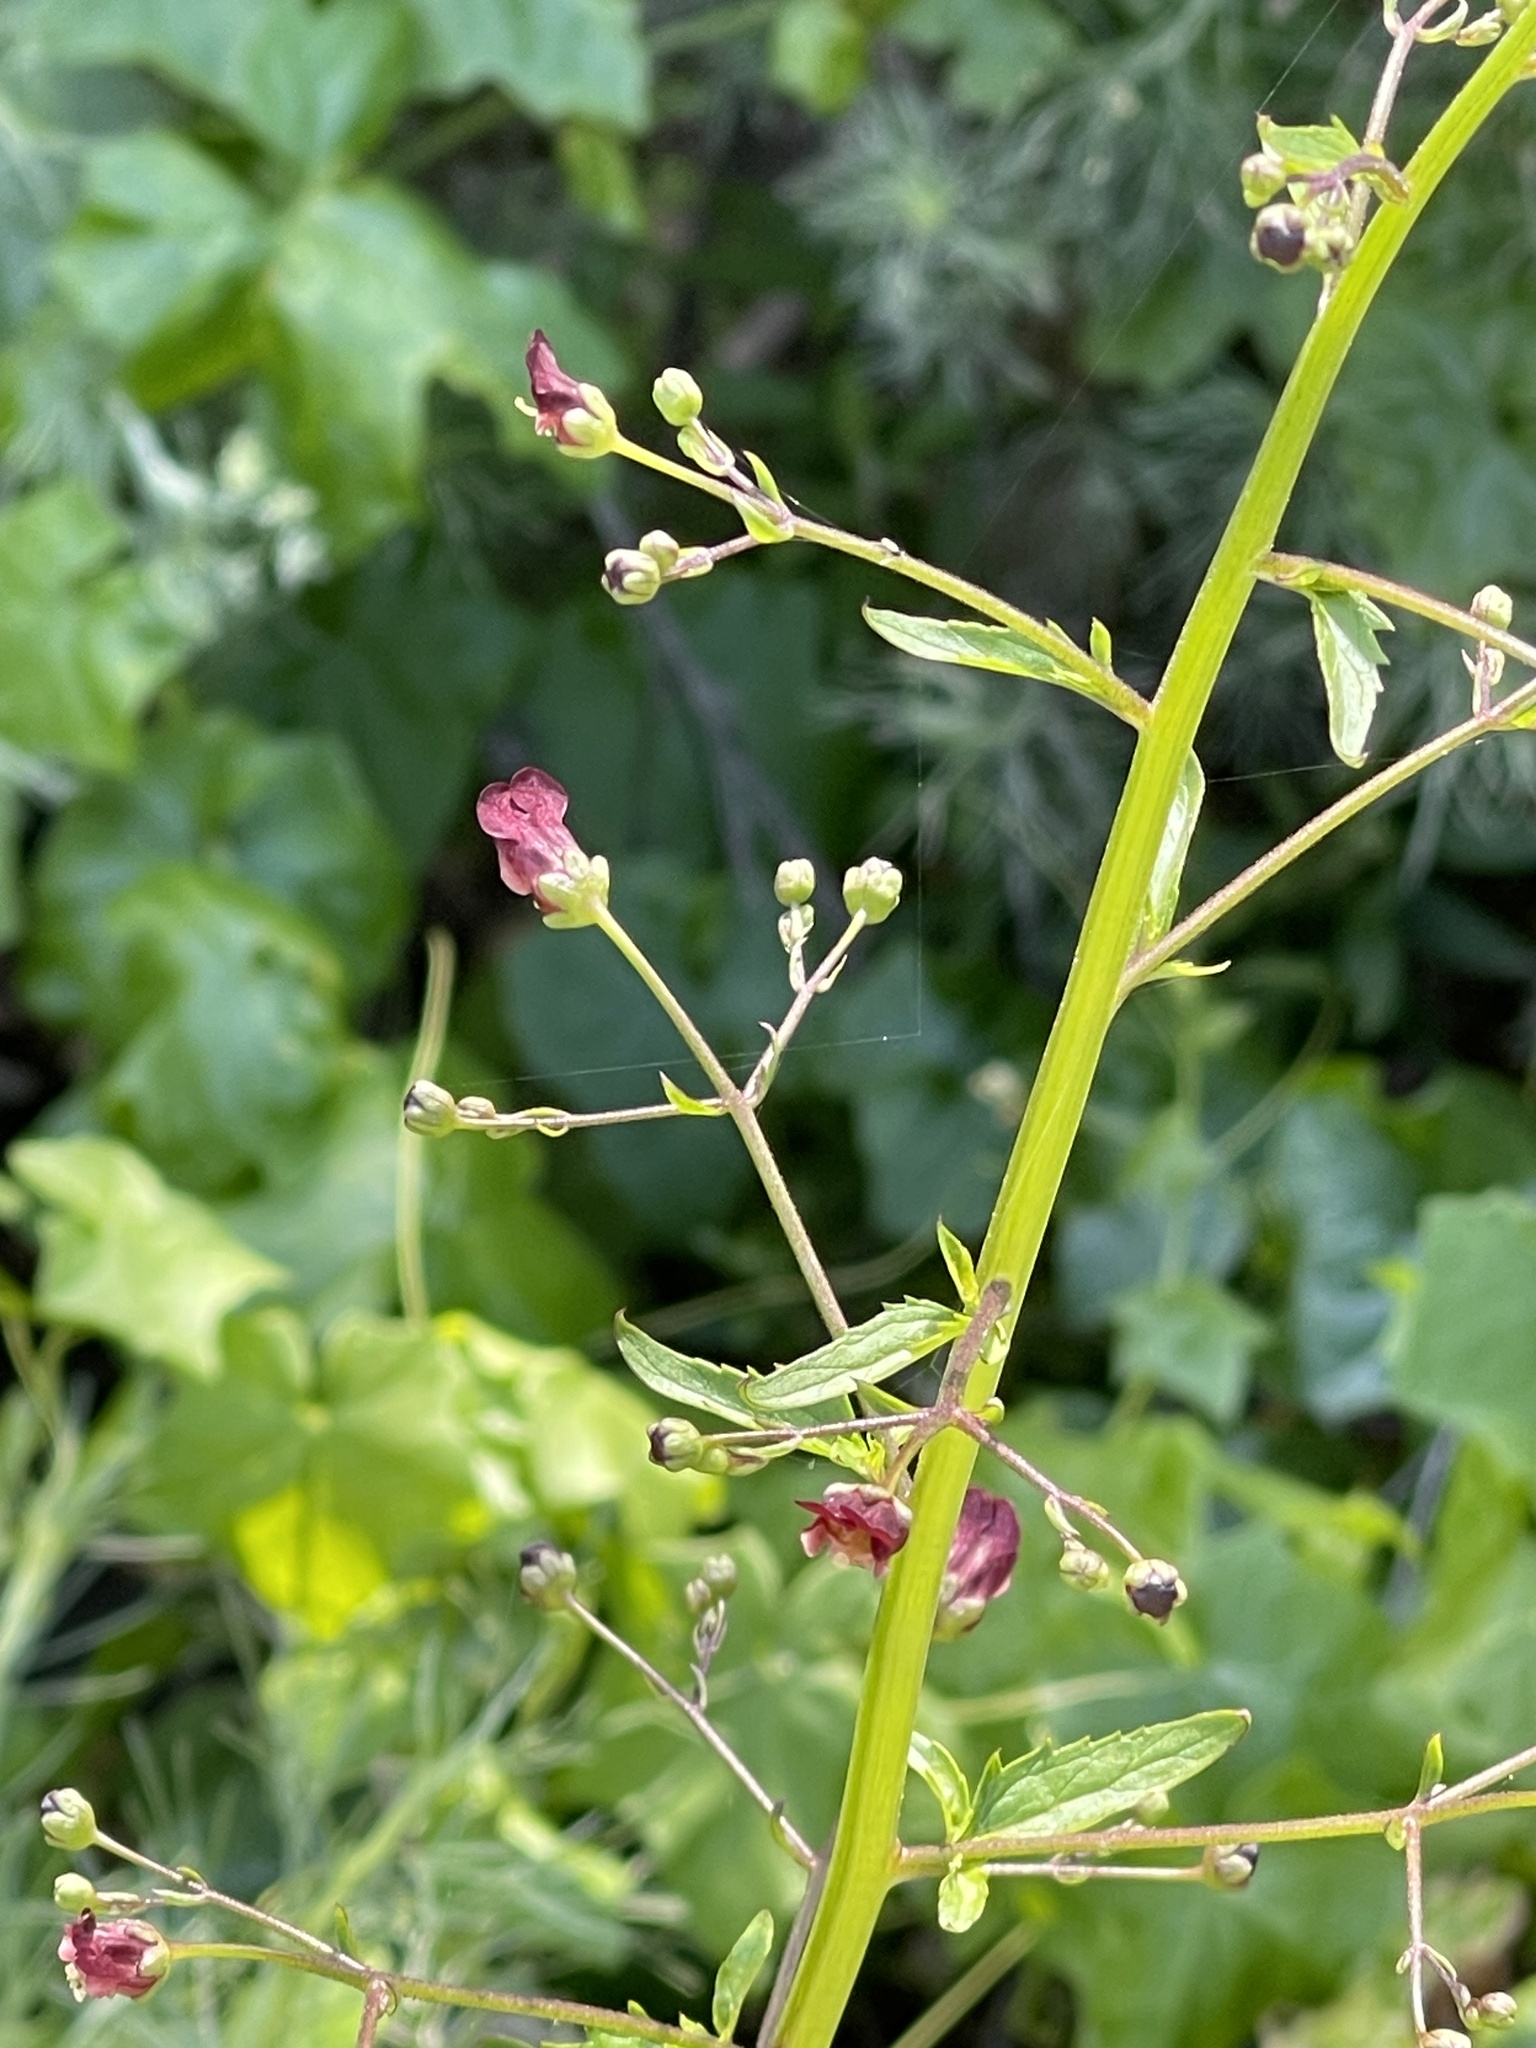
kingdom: Plantae
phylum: Tracheophyta
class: Magnoliopsida
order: Lamiales
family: Scrophulariaceae
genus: Scrophularia
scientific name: Scrophularia californica
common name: California figwort
